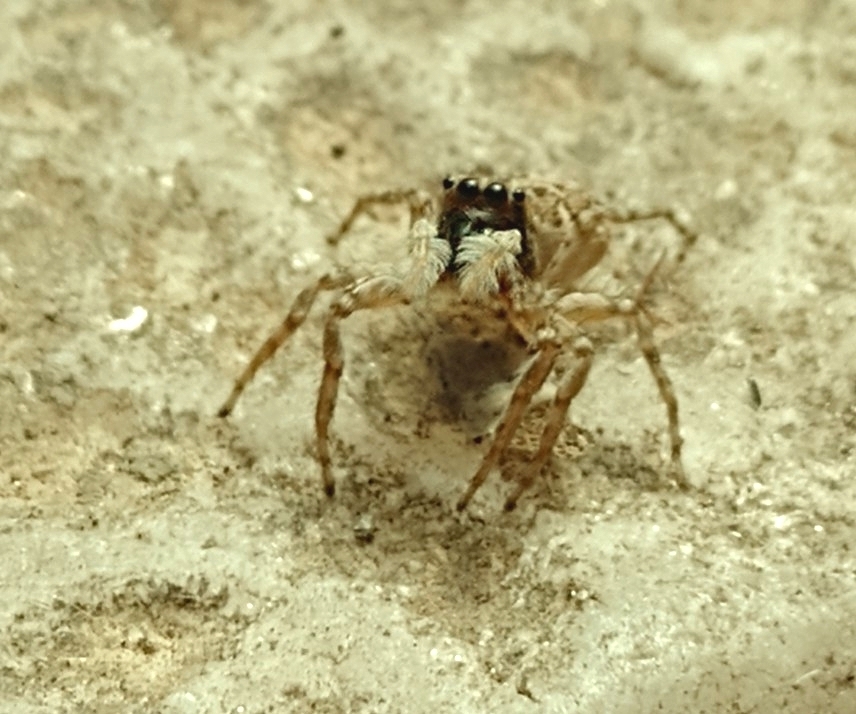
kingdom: Animalia
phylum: Arthropoda
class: Arachnida
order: Araneae
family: Salticidae
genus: Menemerus
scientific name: Menemerus semilimbatus
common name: Jumping spider
